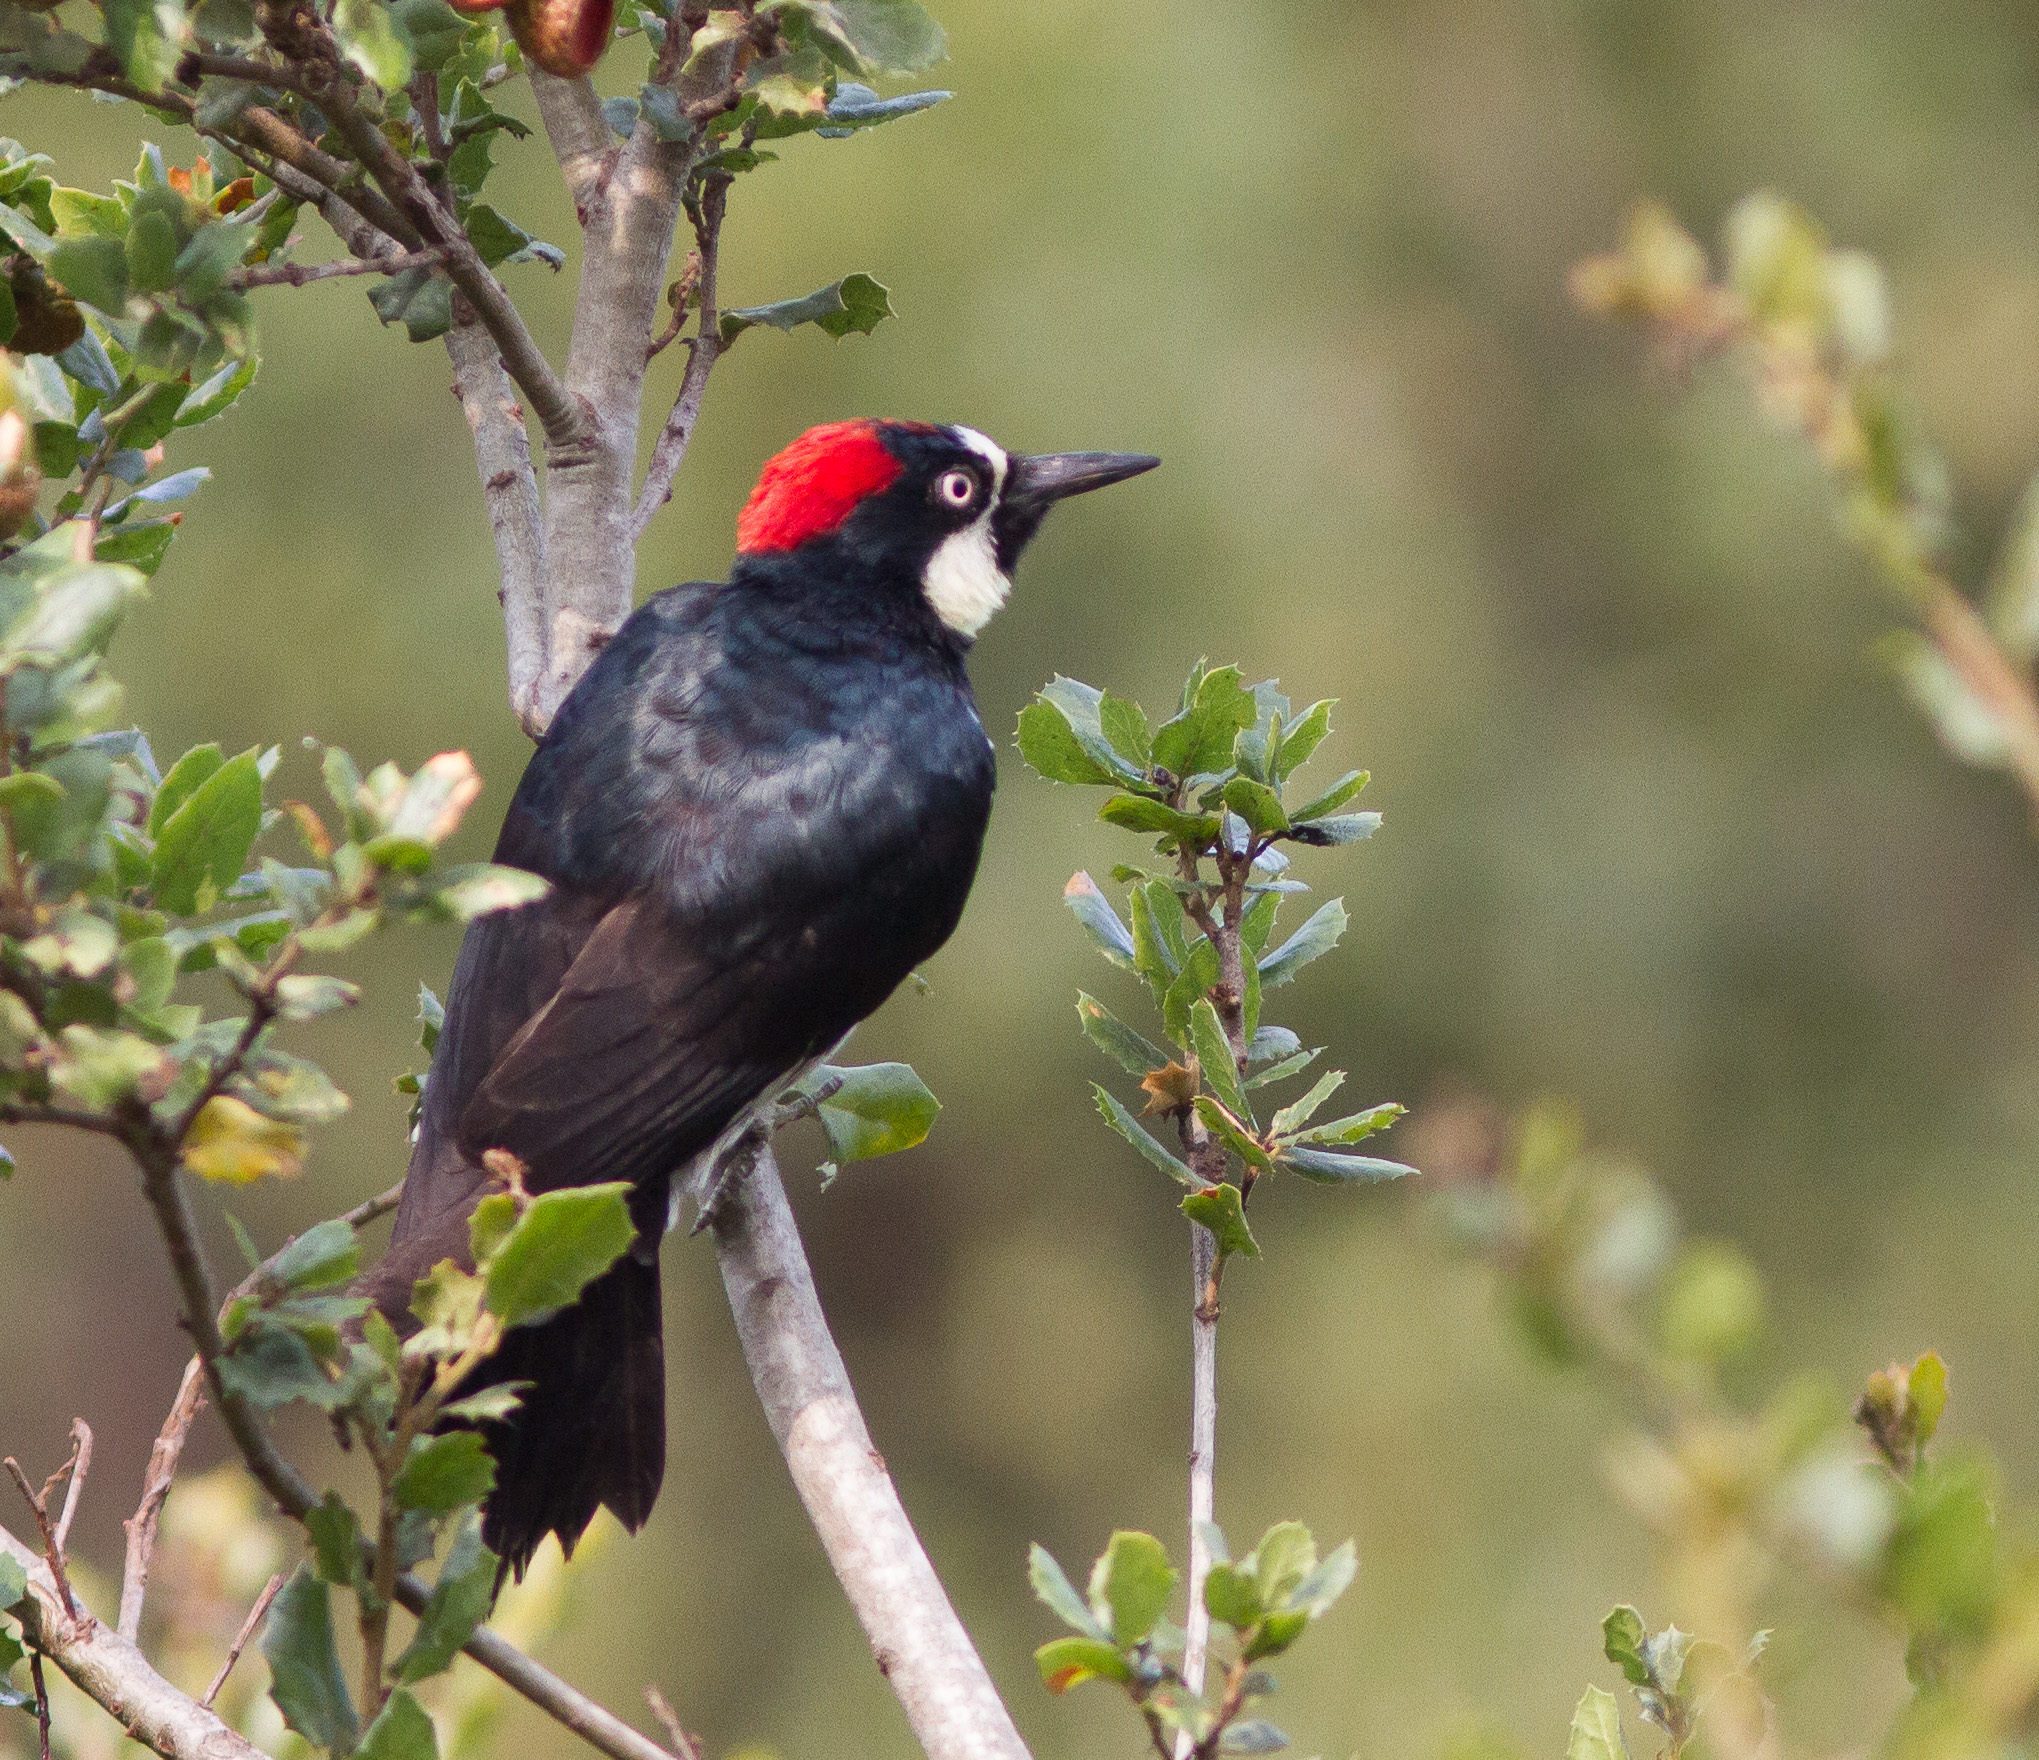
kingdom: Animalia
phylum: Chordata
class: Aves
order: Piciformes
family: Picidae
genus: Melanerpes
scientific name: Melanerpes formicivorus
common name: Acorn woodpecker
